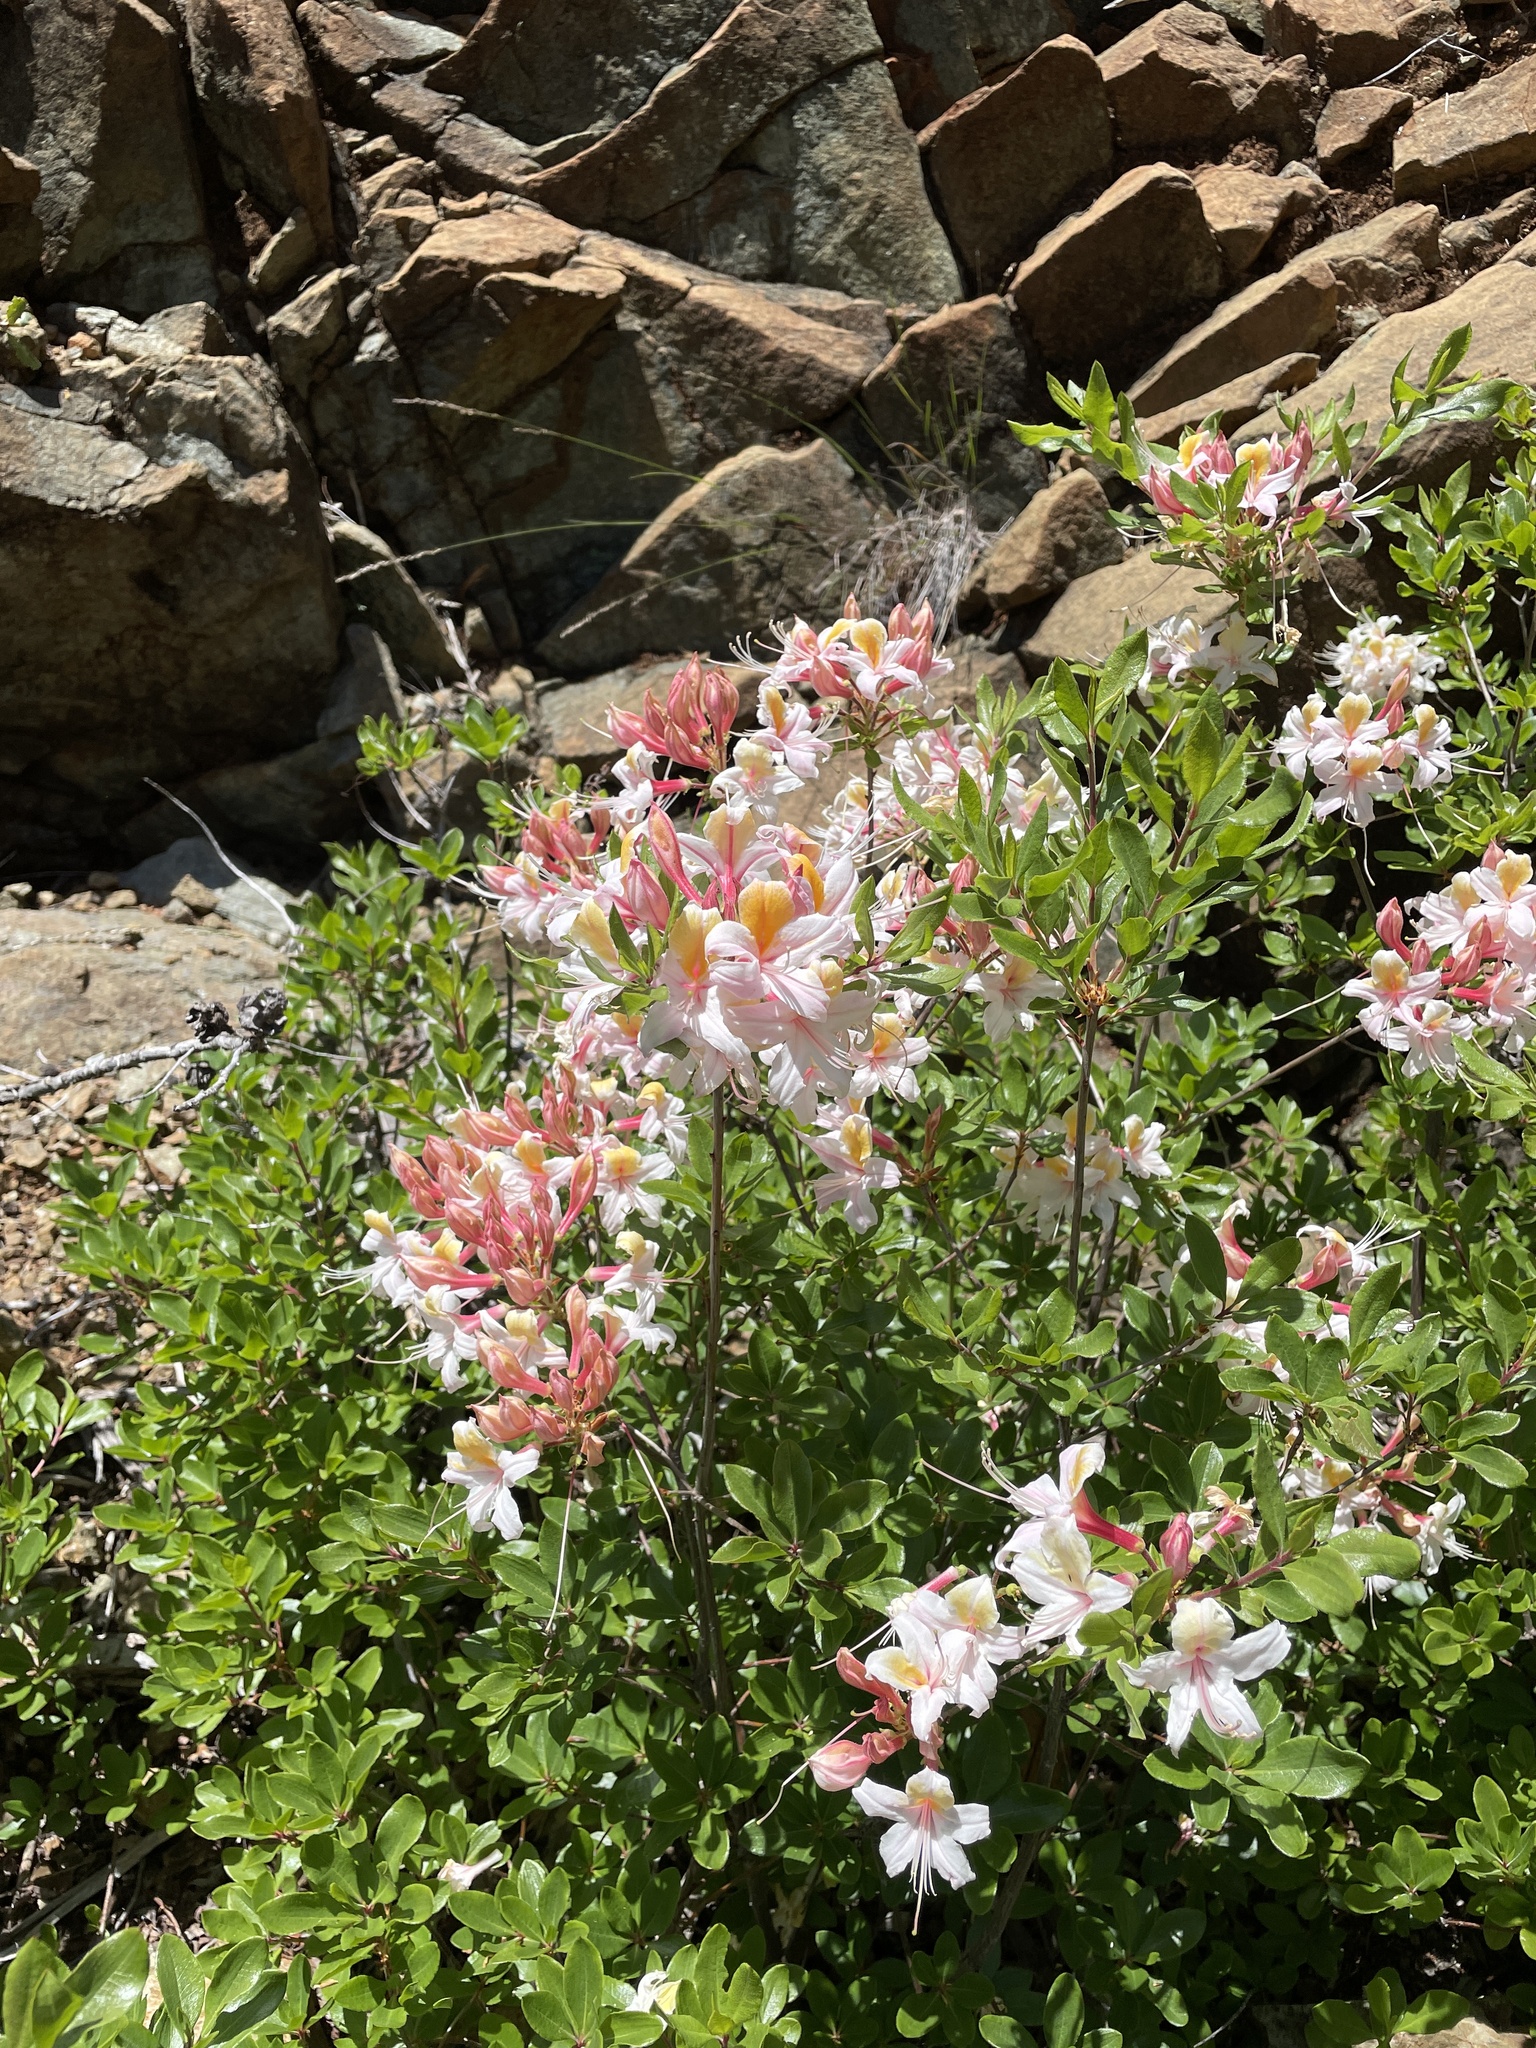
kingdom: Plantae
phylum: Tracheophyta
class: Magnoliopsida
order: Ericales
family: Ericaceae
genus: Rhododendron
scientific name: Rhododendron occidentale
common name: Western azalea
